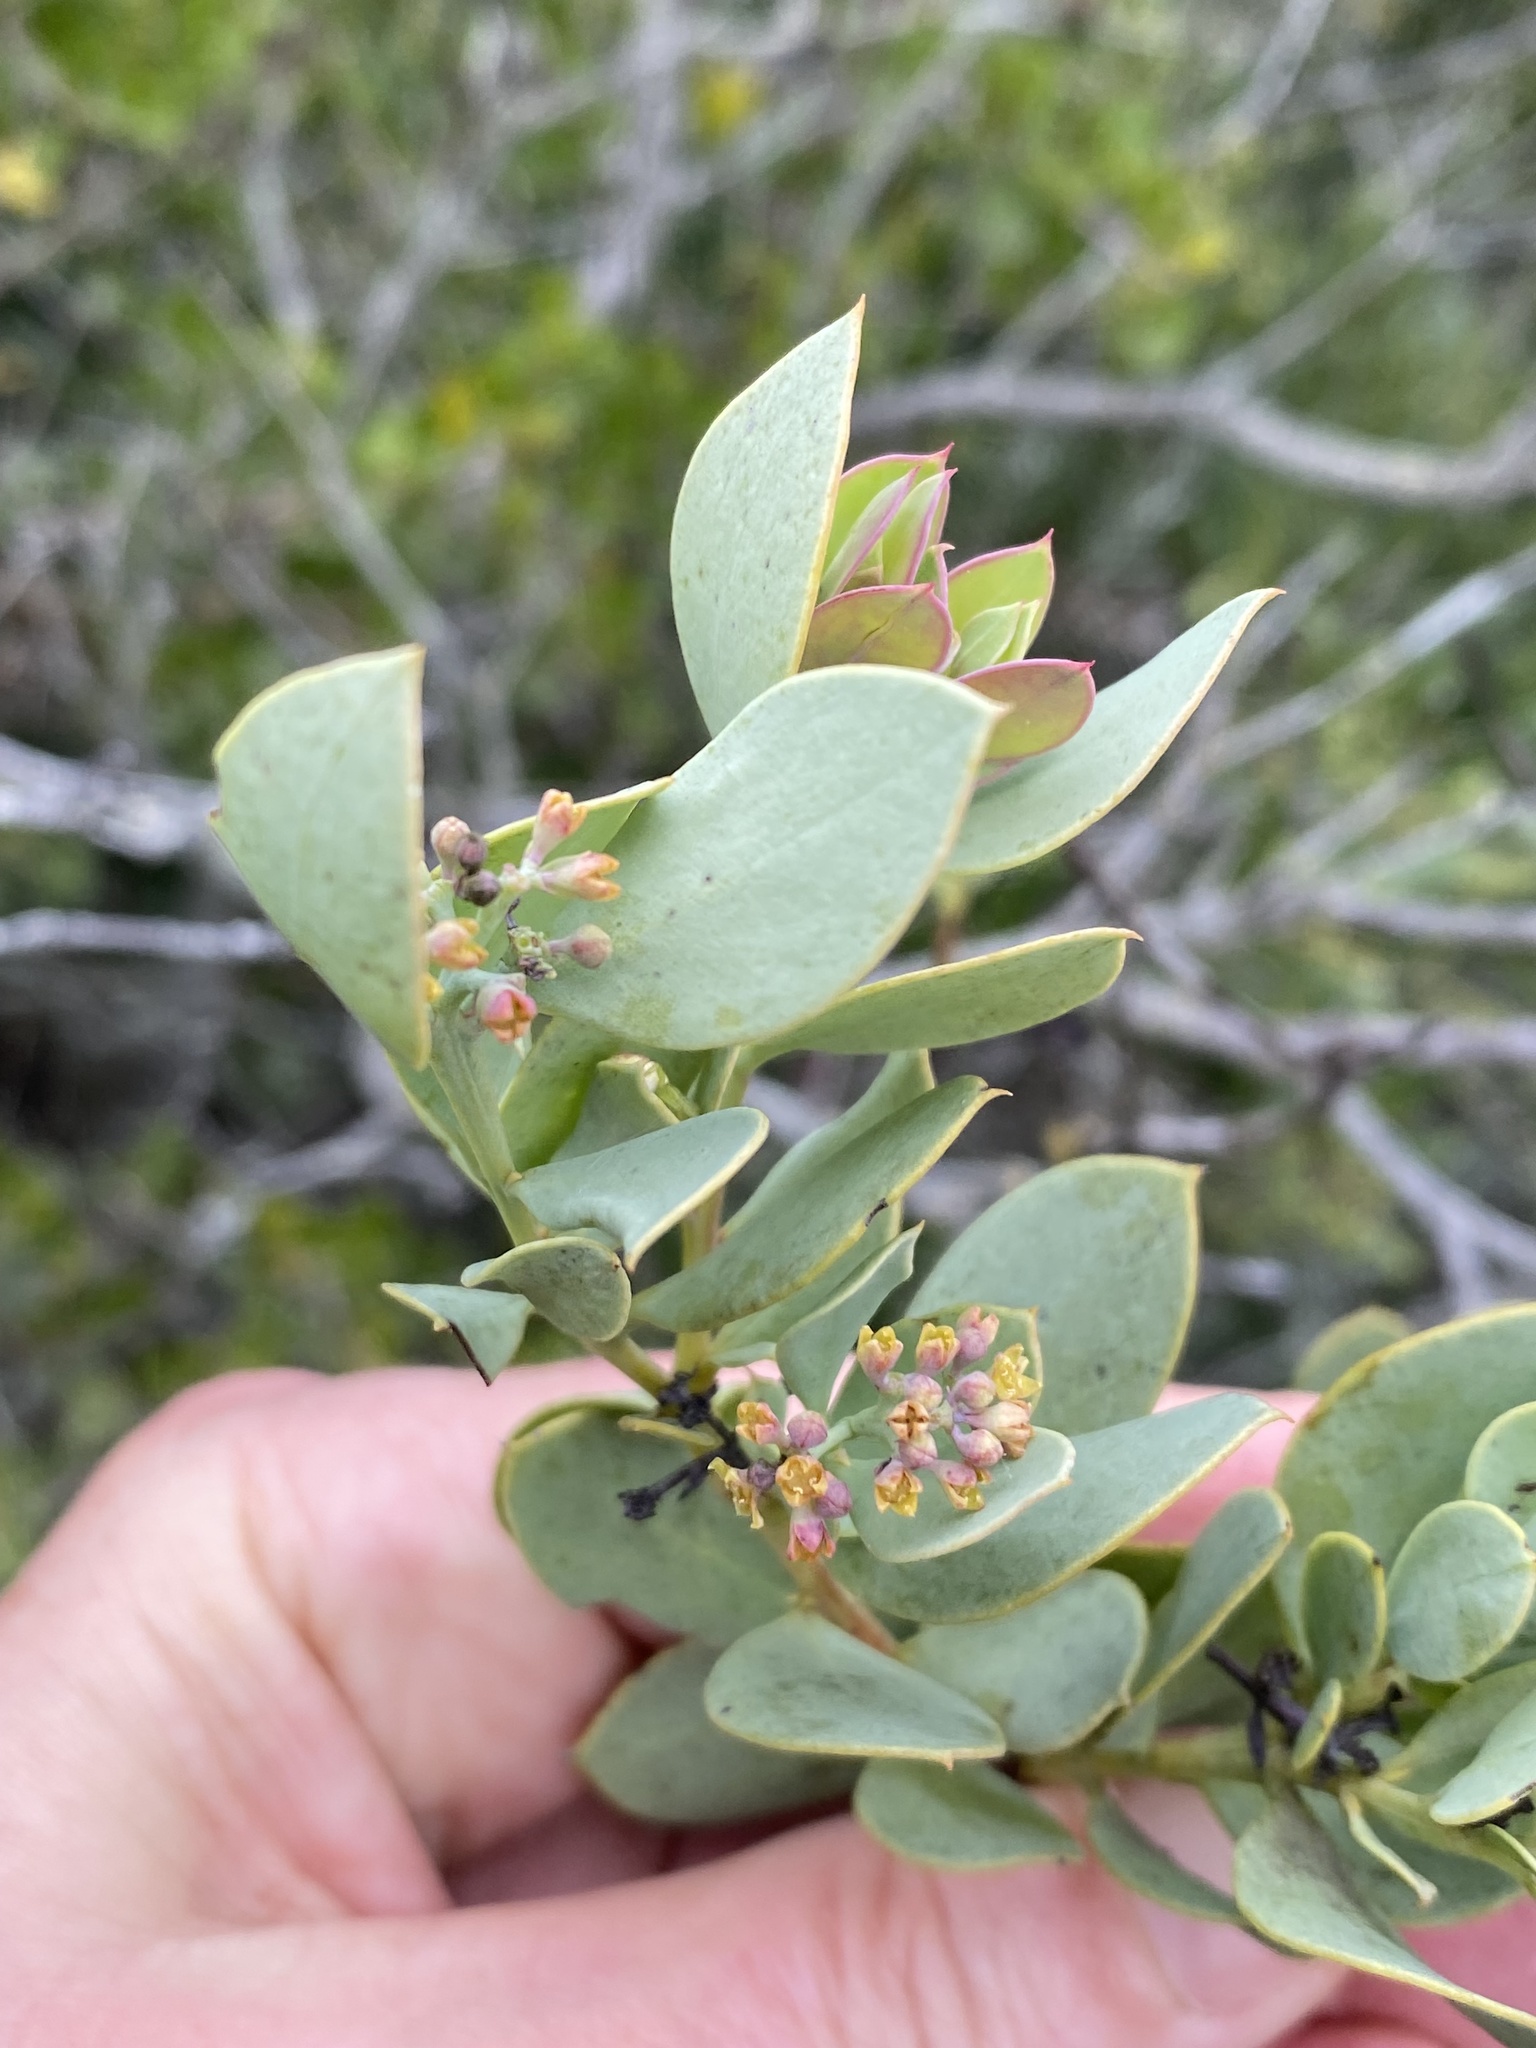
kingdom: Plantae
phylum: Tracheophyta
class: Magnoliopsida
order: Santalales
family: Santalaceae
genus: Osyris
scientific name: Osyris compressa
